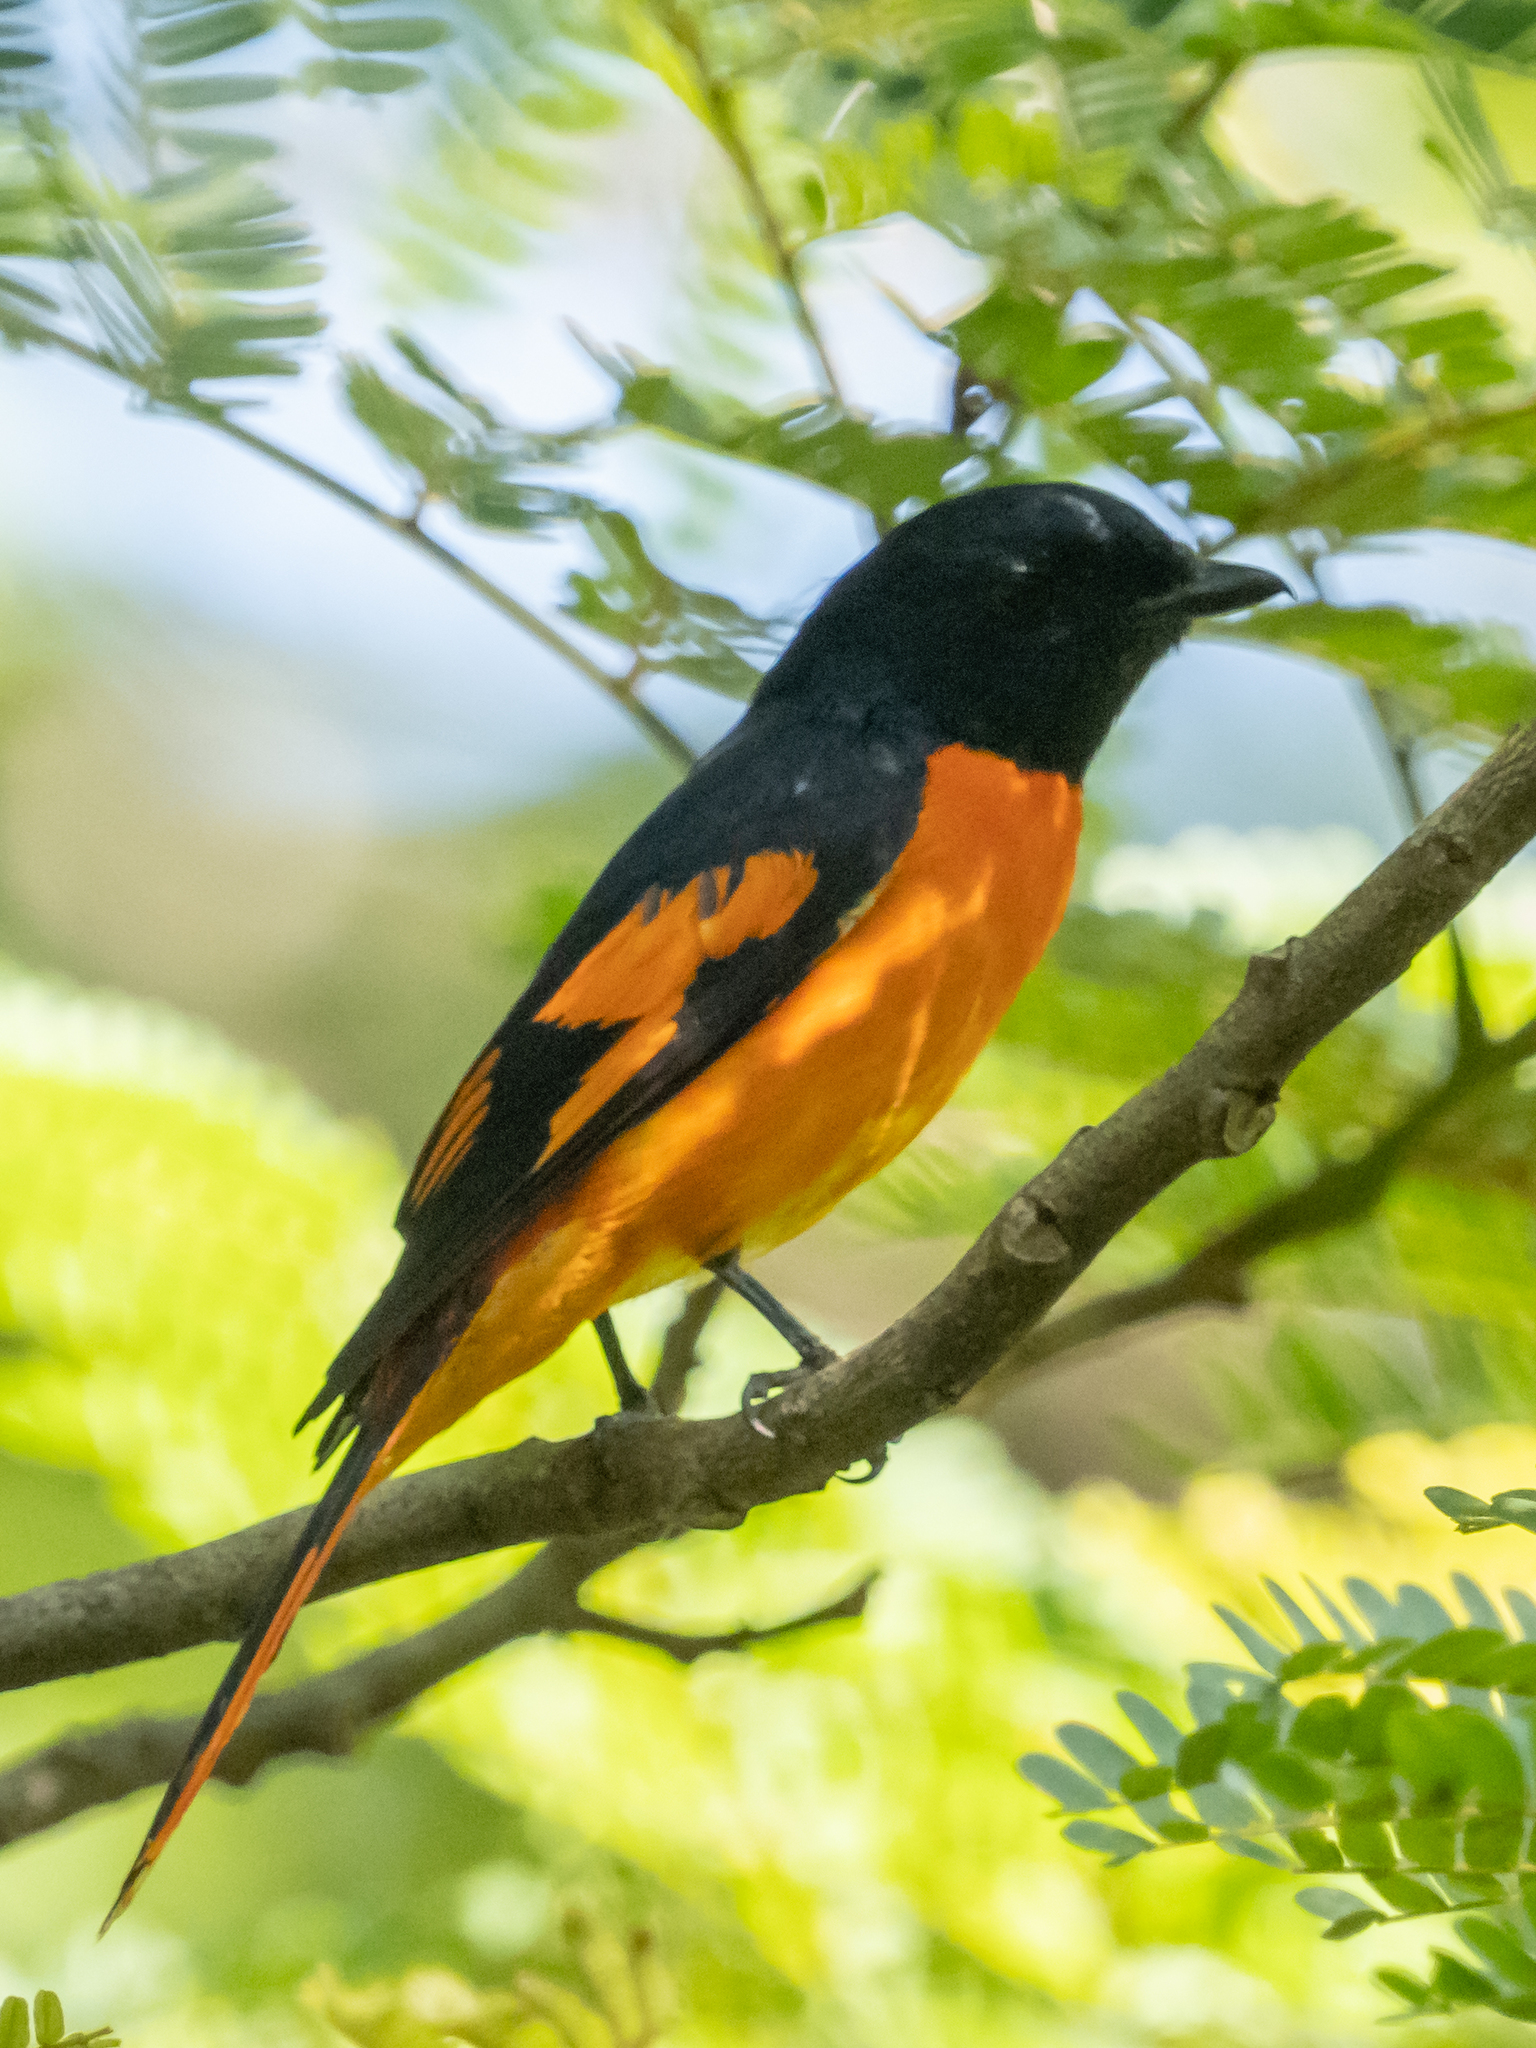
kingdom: Animalia
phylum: Chordata
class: Aves
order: Passeriformes
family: Campephagidae
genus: Pericrocotus
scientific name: Pericrocotus flammeus
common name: Orange minivet
